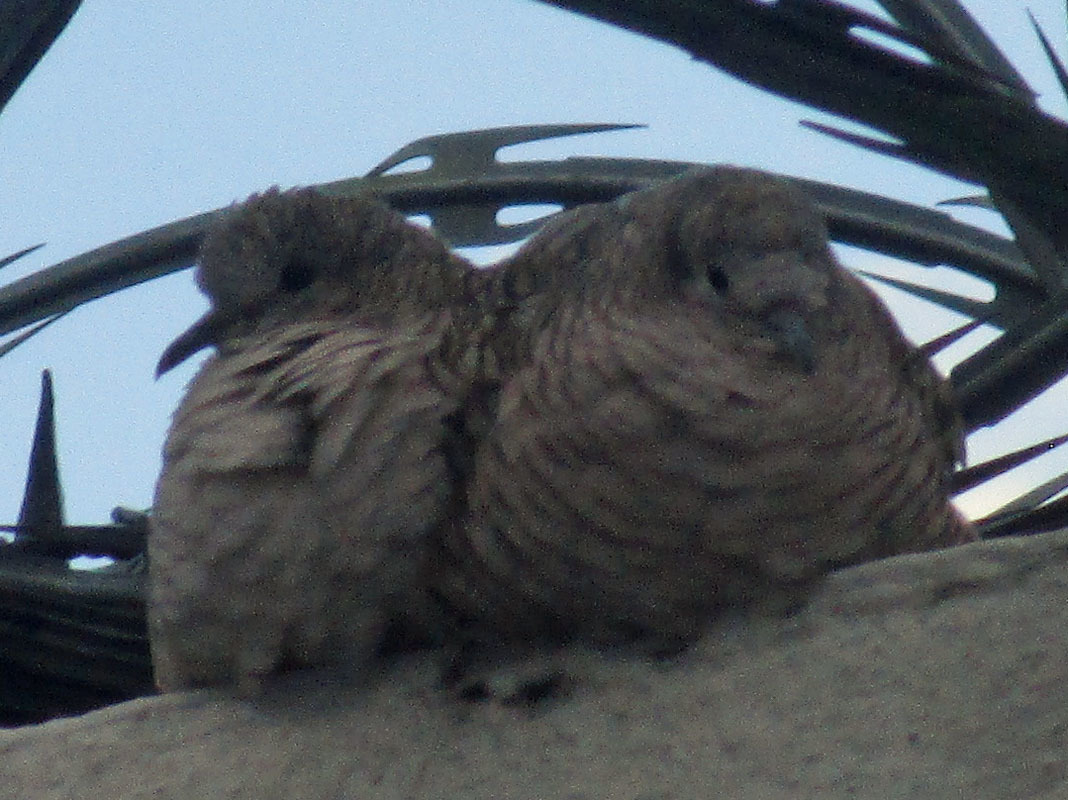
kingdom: Animalia
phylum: Chordata
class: Aves
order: Columbiformes
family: Columbidae
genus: Columbina
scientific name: Columbina inca
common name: Inca dove
